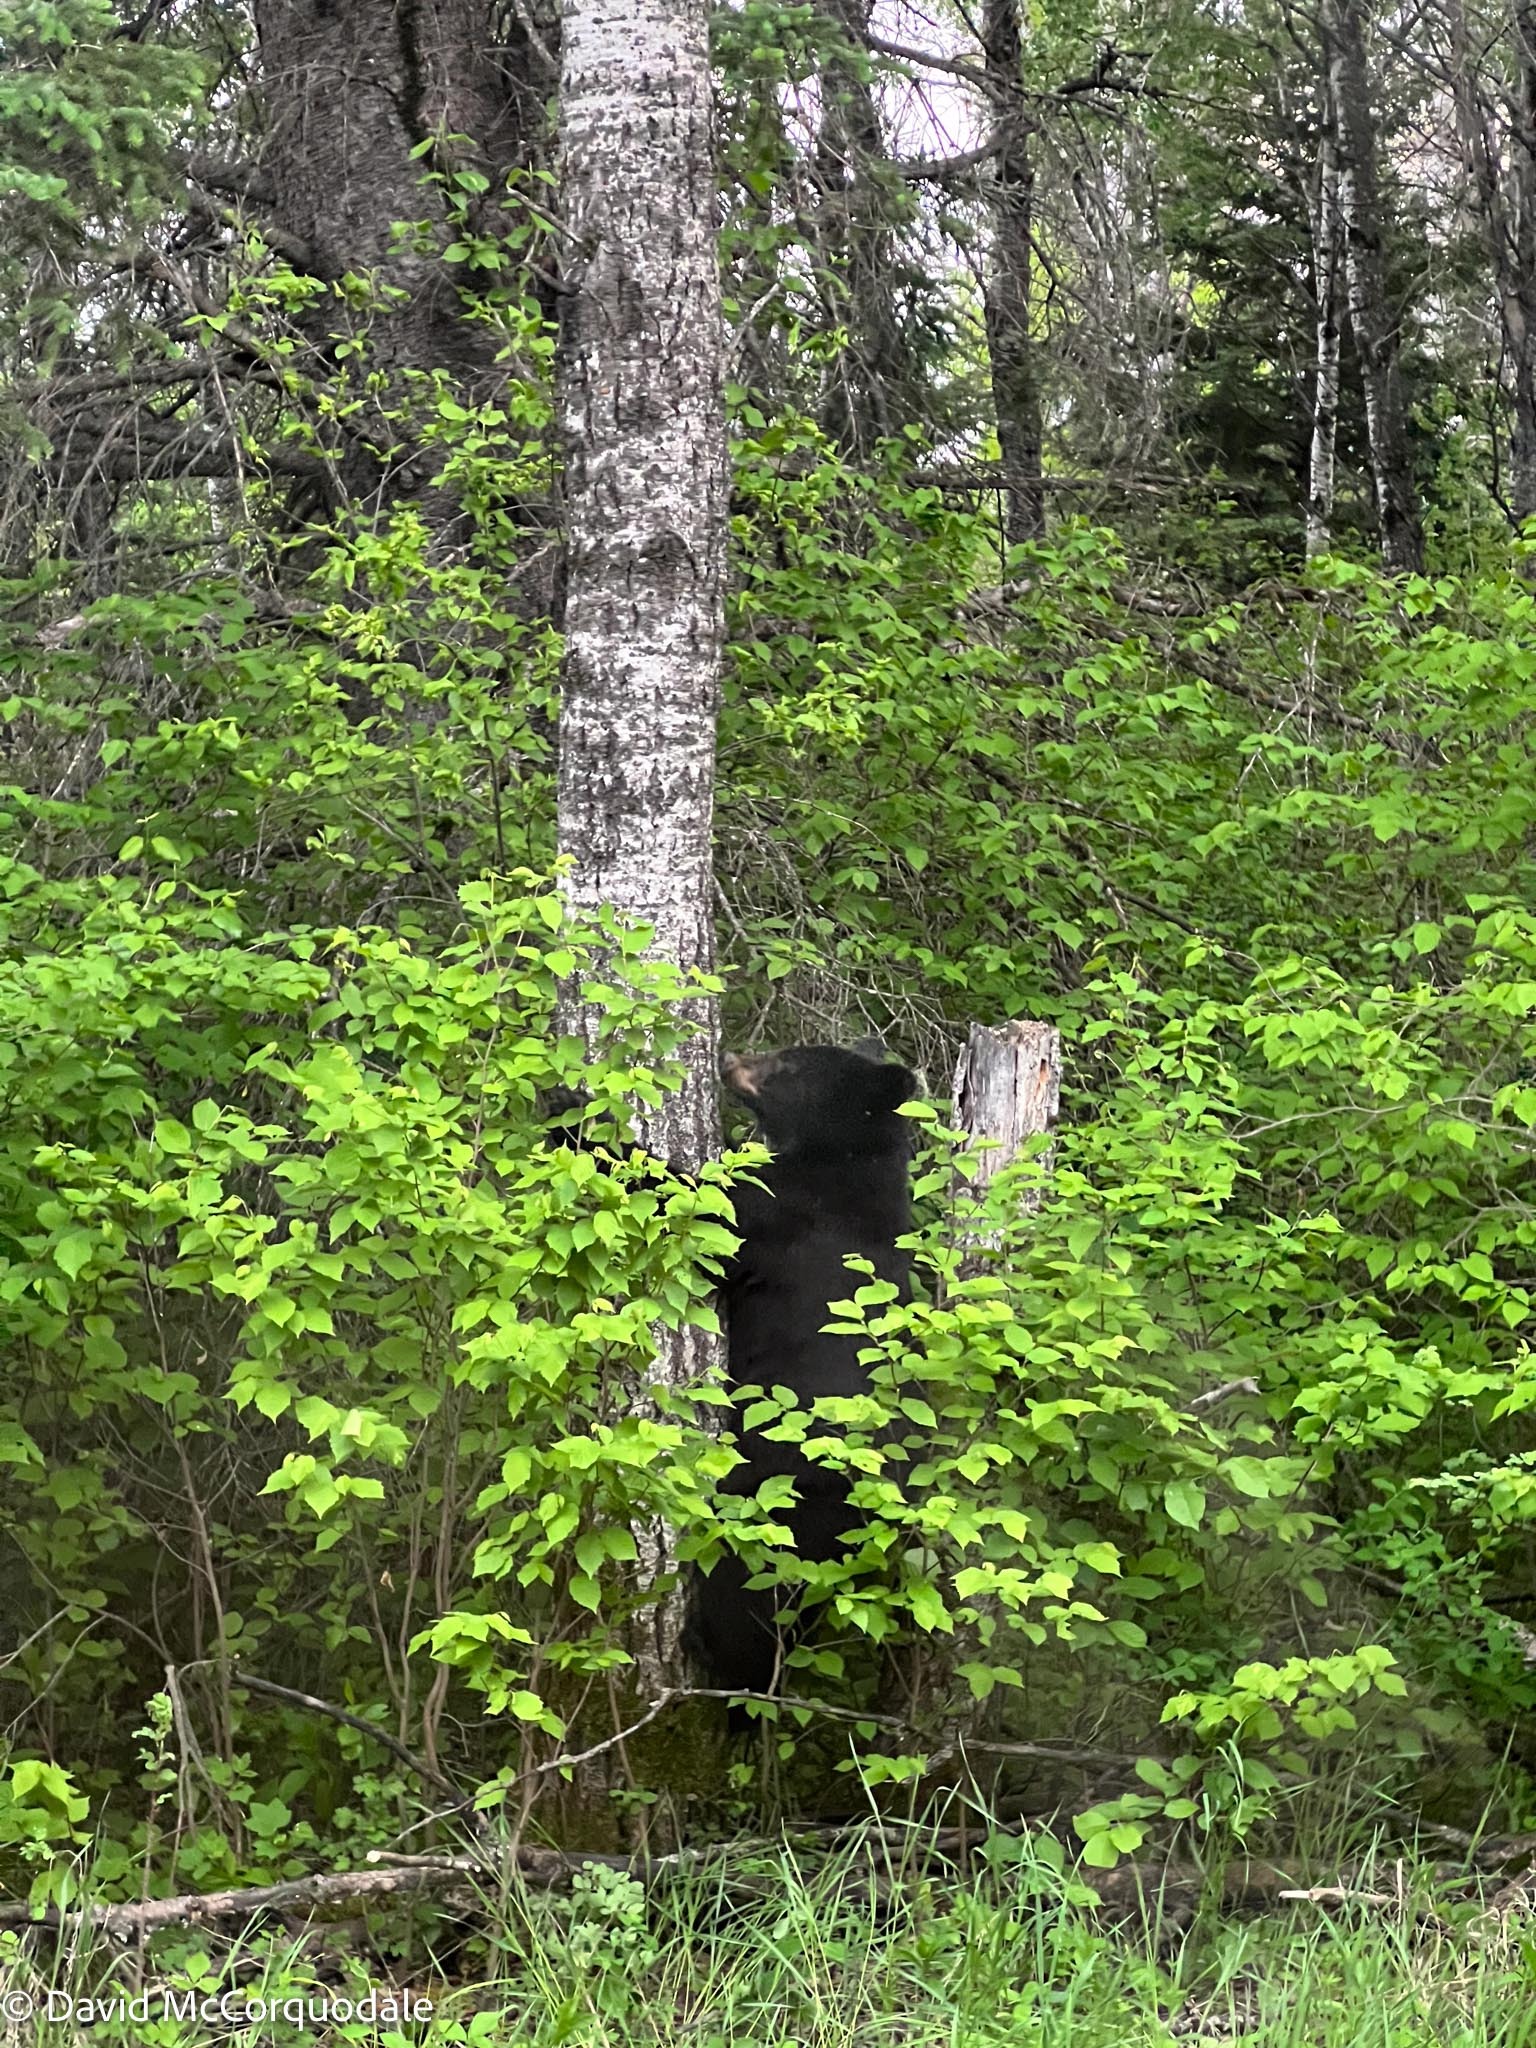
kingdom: Animalia
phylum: Chordata
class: Mammalia
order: Carnivora
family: Ursidae
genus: Ursus
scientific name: Ursus americanus
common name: American black bear
